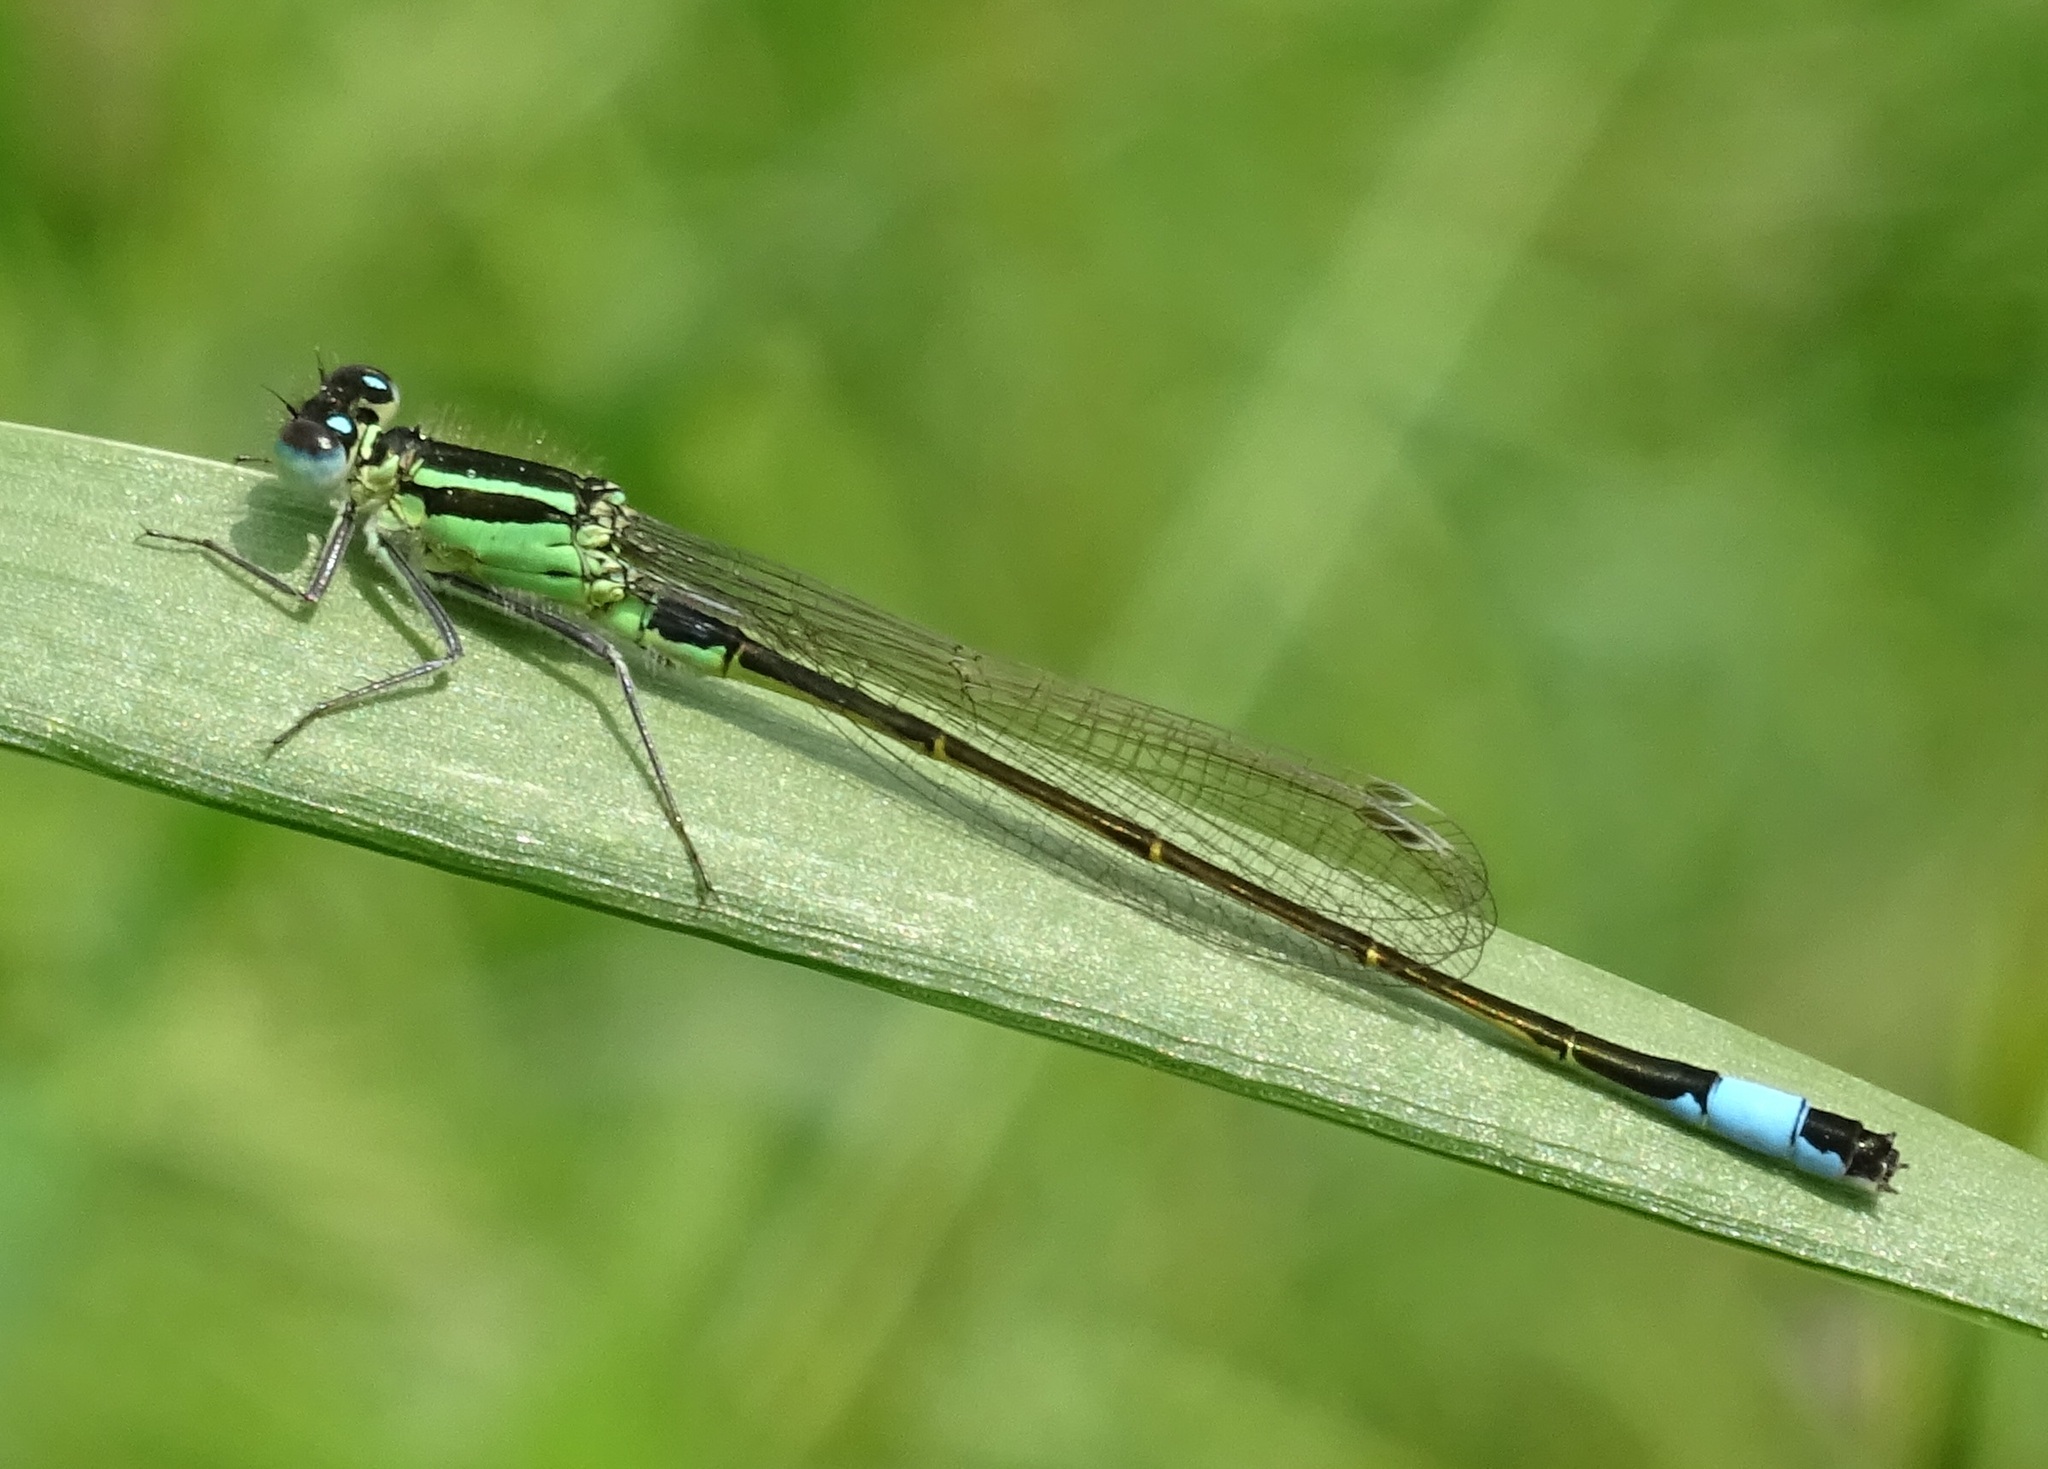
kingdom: Animalia
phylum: Arthropoda
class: Insecta
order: Odonata
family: Coenagrionidae
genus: Ischnura
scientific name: Ischnura elegans
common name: Blue-tailed damselfly
